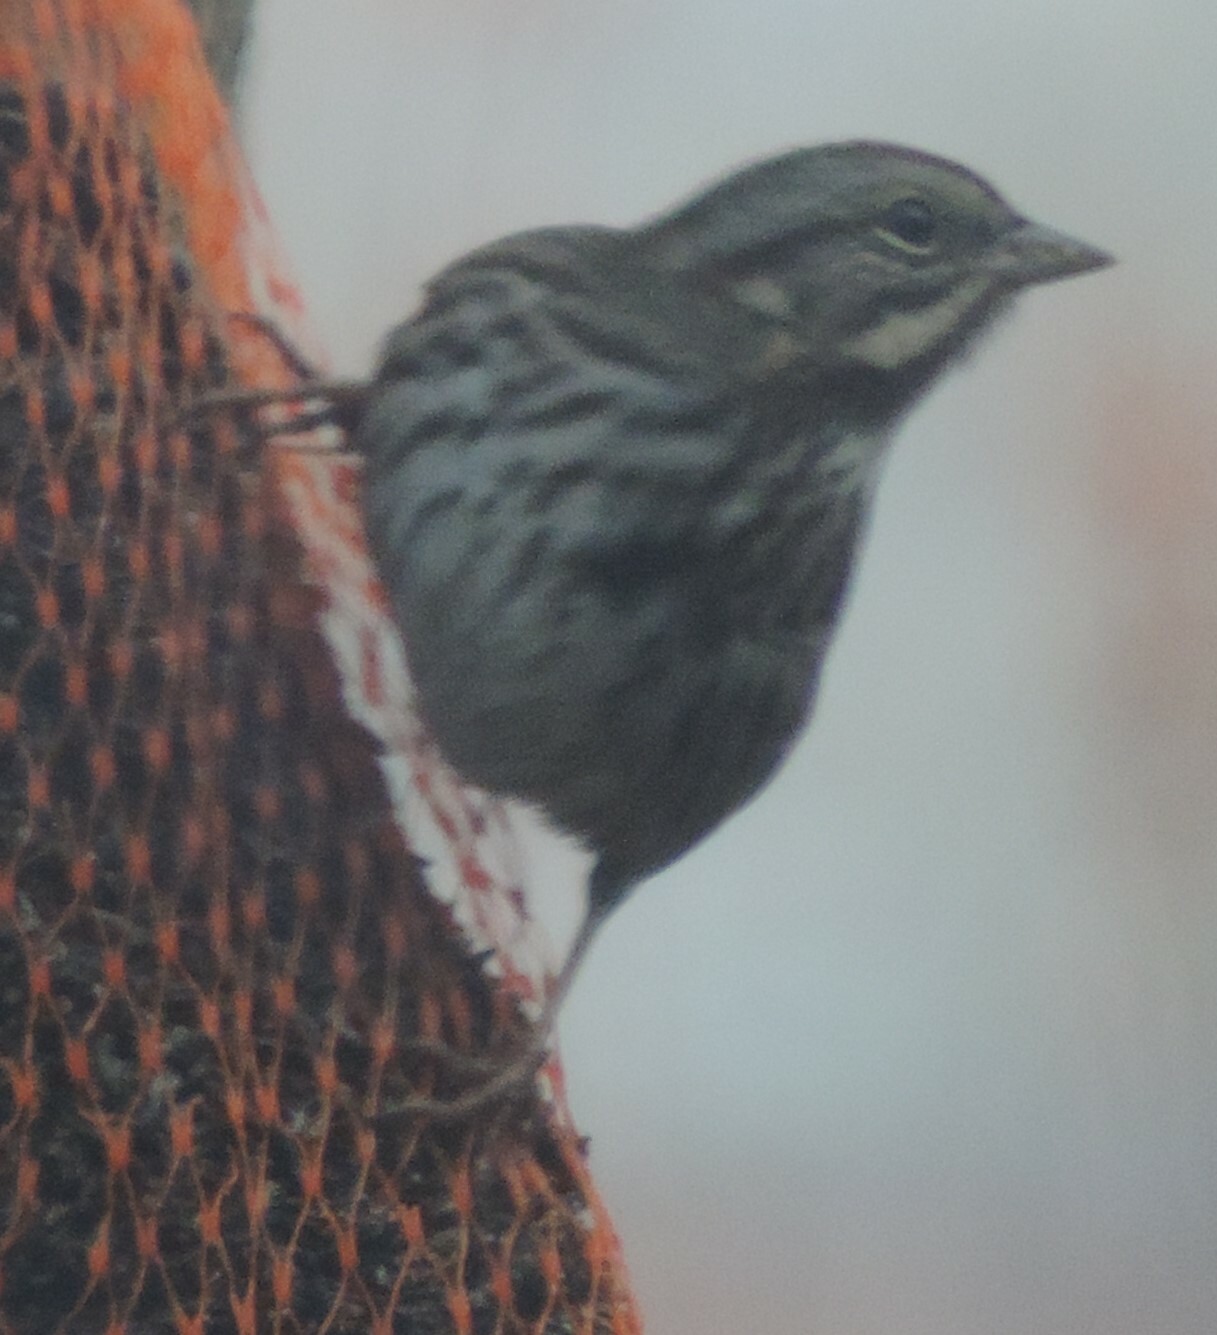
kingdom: Animalia
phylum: Chordata
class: Aves
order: Passeriformes
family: Passerellidae
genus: Melospiza
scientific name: Melospiza melodia
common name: Song sparrow
